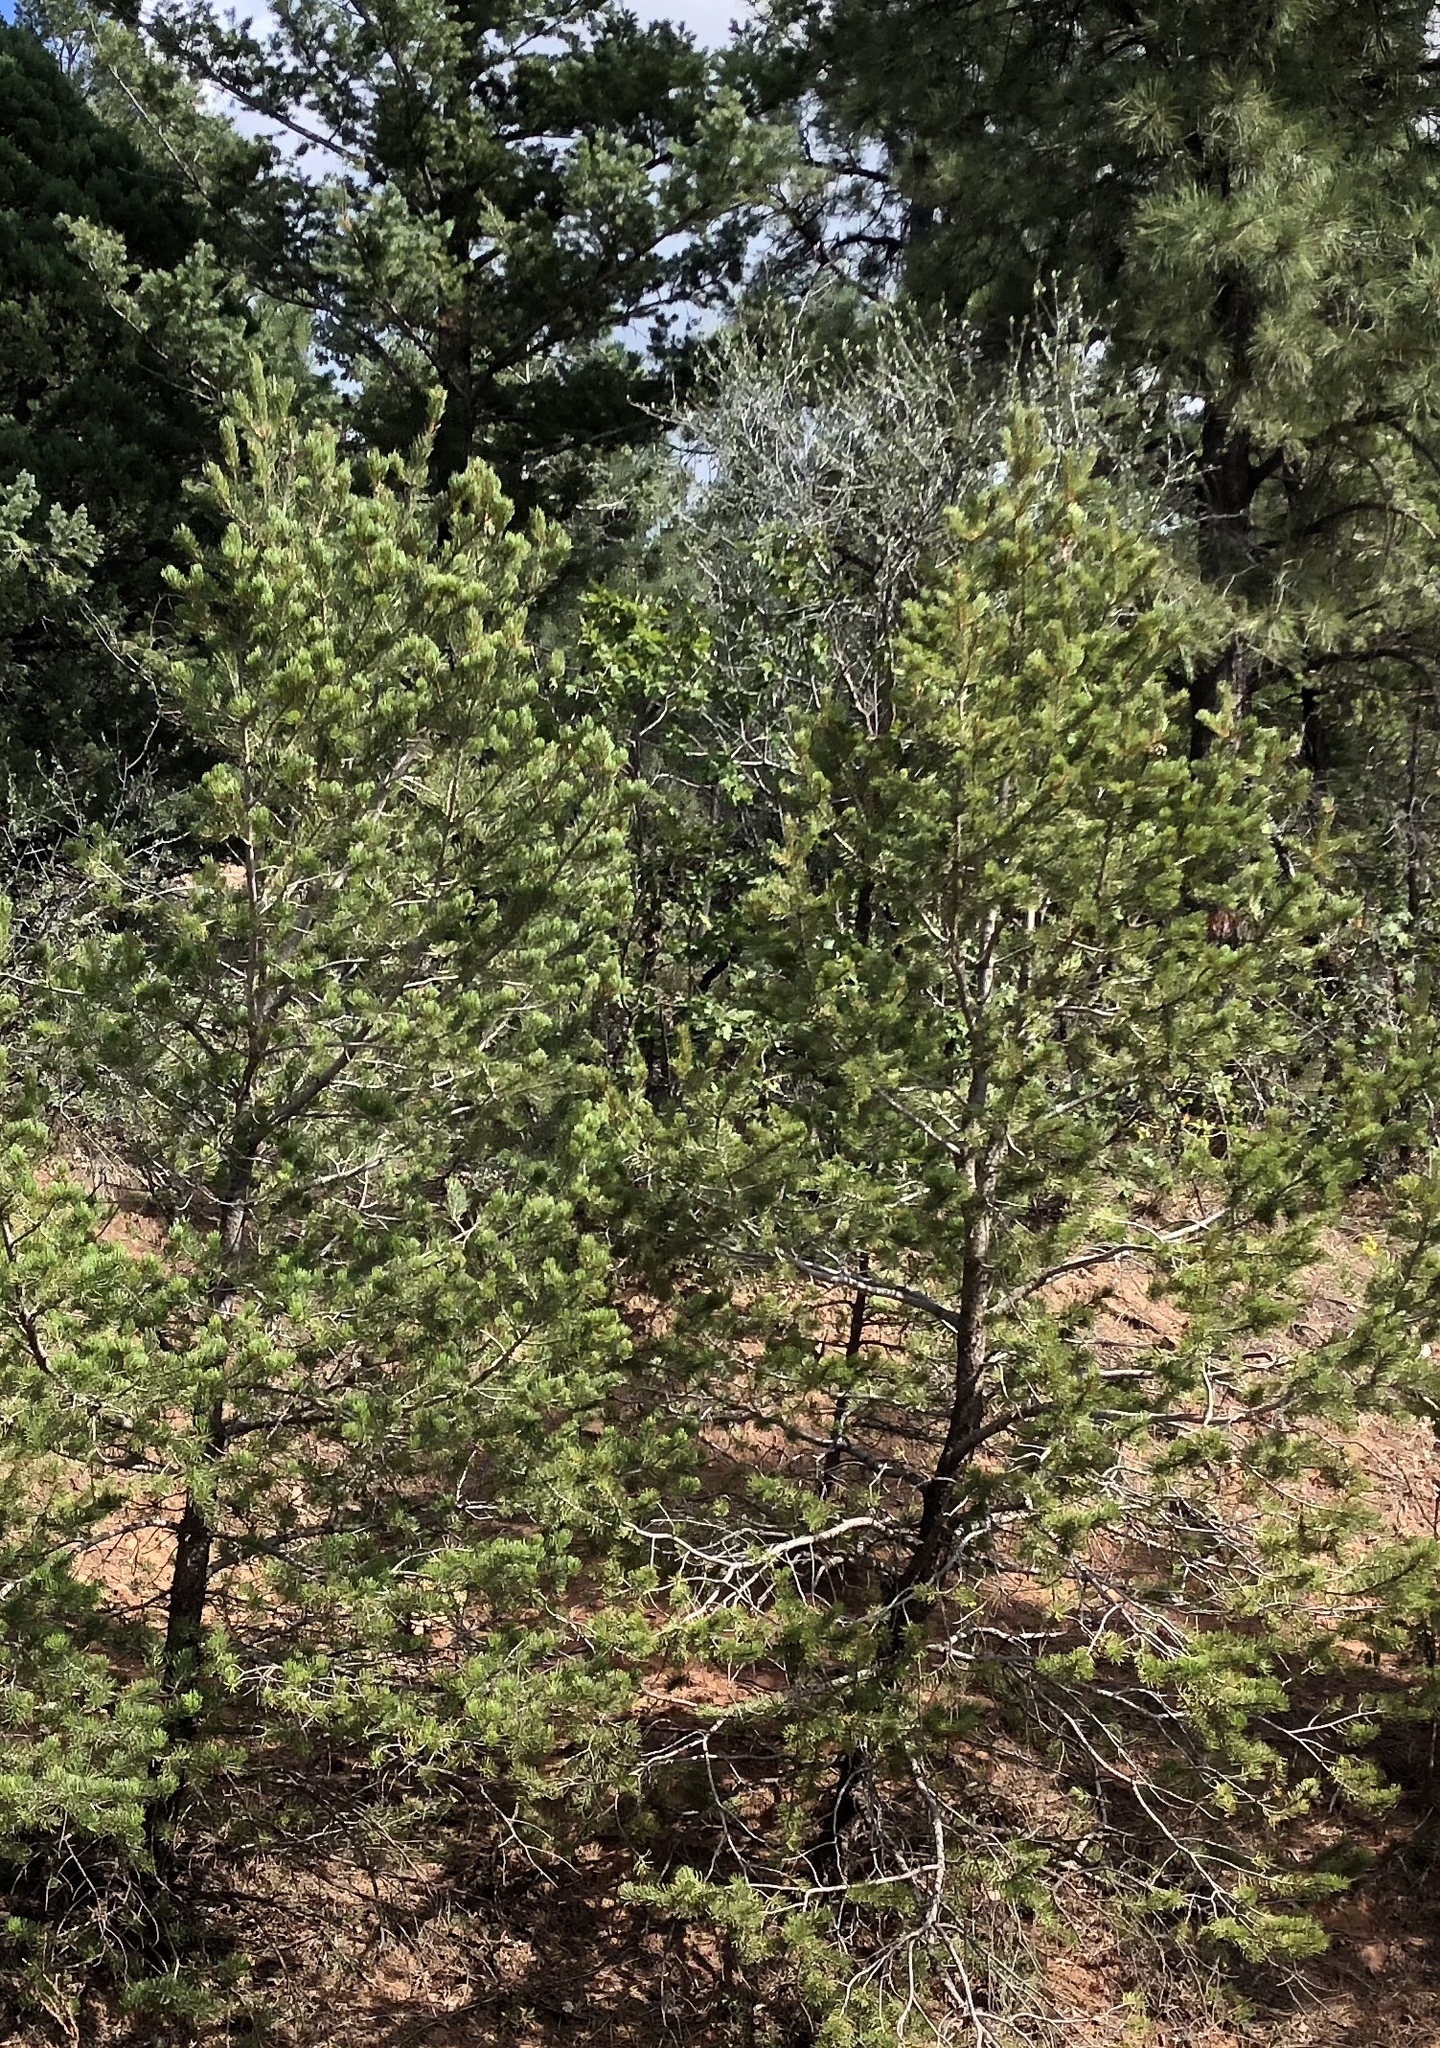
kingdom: Plantae
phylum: Tracheophyta
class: Pinopsida
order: Pinales
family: Pinaceae
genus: Pinus
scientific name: Pinus edulis
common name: Colorado pinyon
